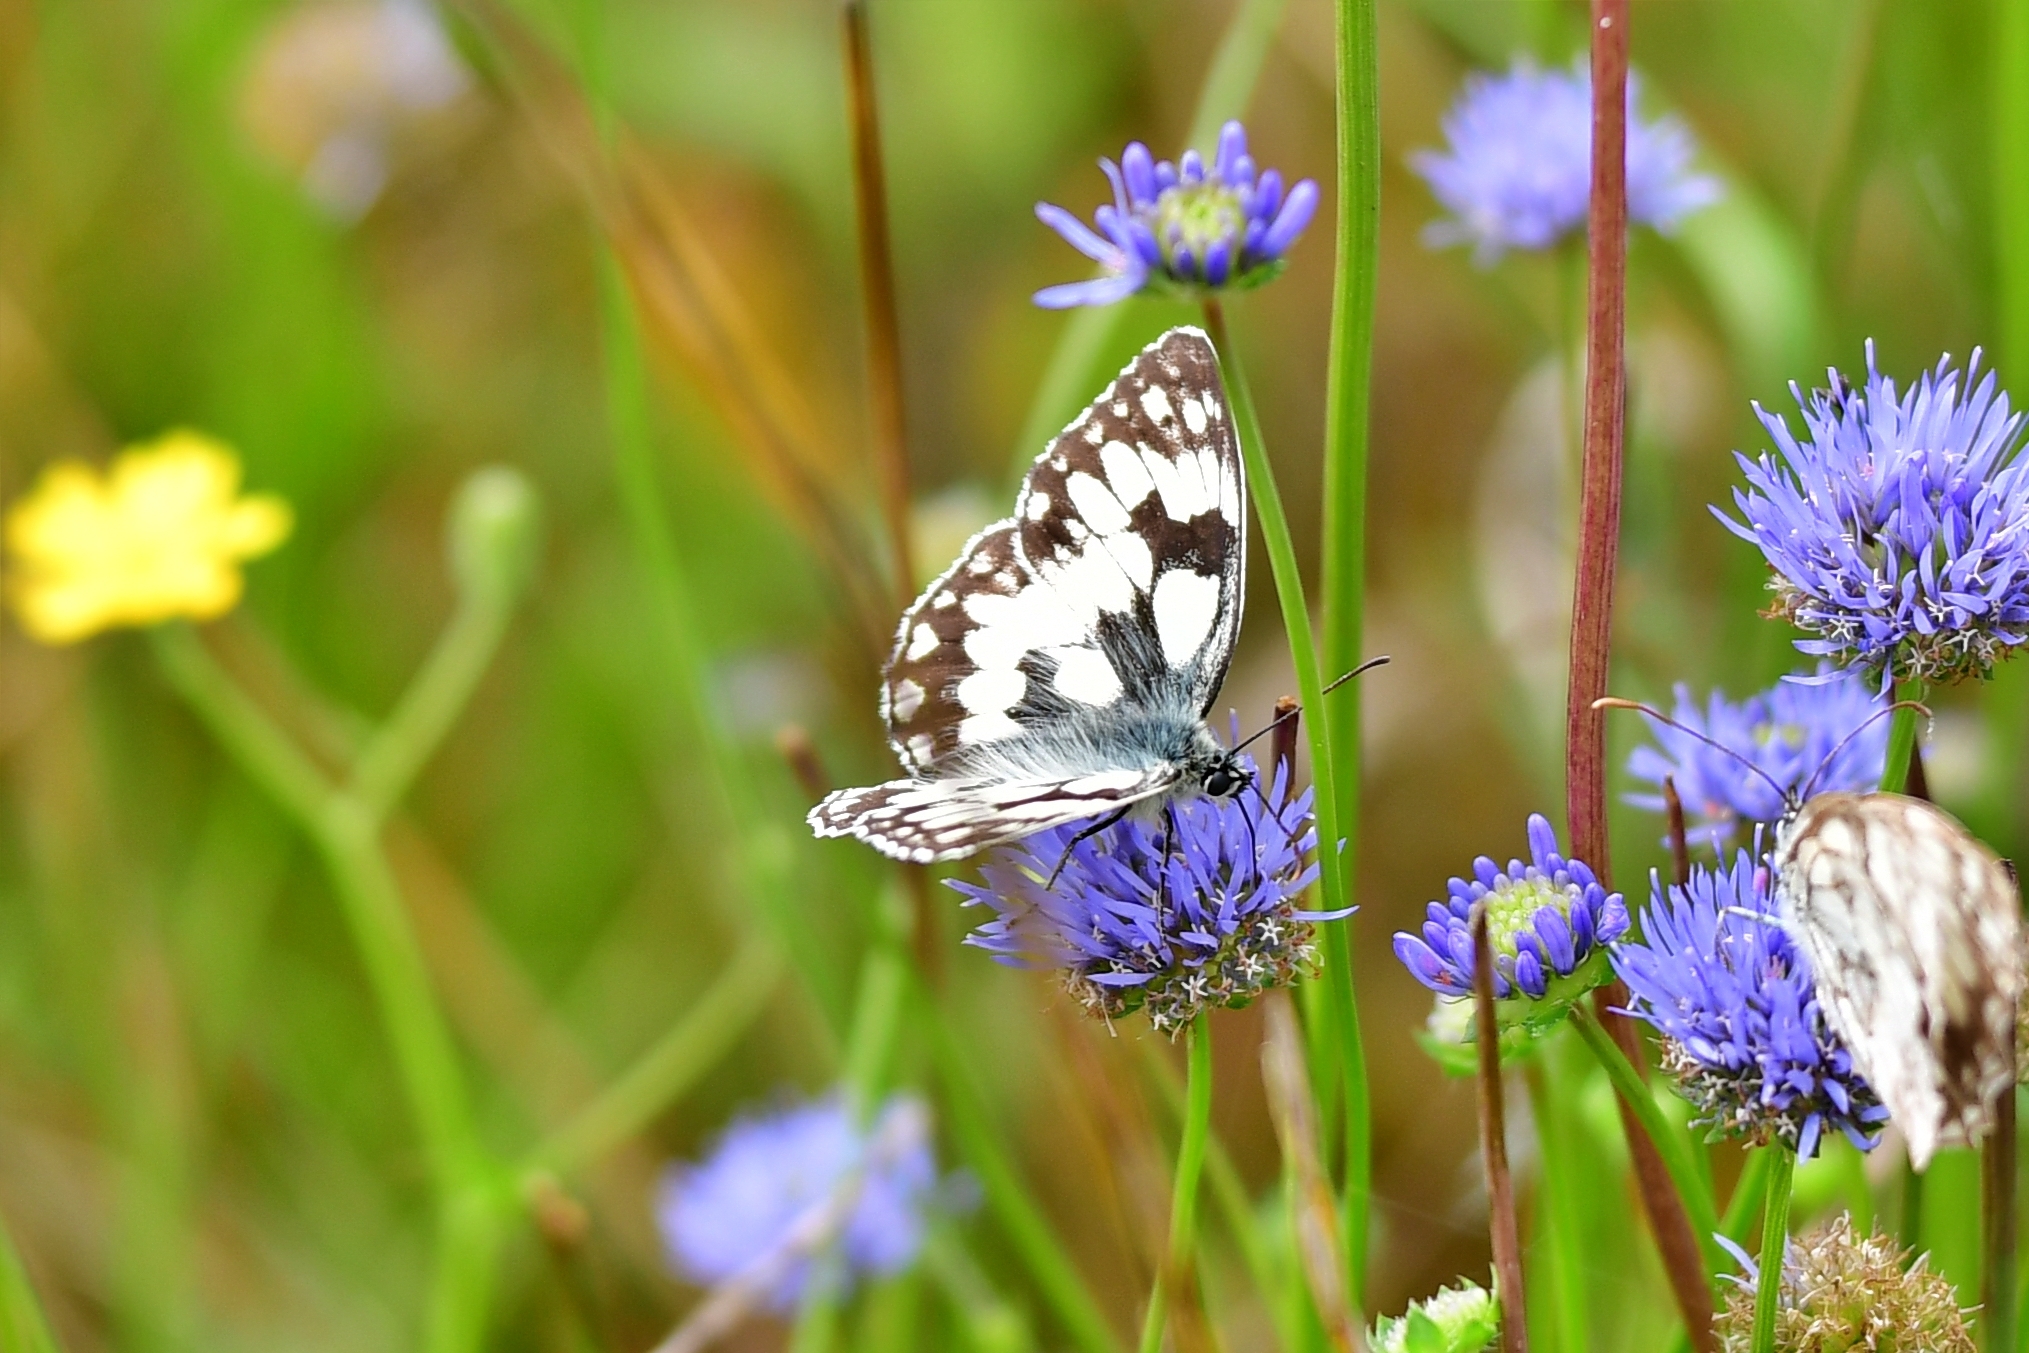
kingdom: Animalia
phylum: Arthropoda
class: Insecta
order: Lepidoptera
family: Nymphalidae
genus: Melanargia
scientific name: Melanargia galathea
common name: Marbled white
